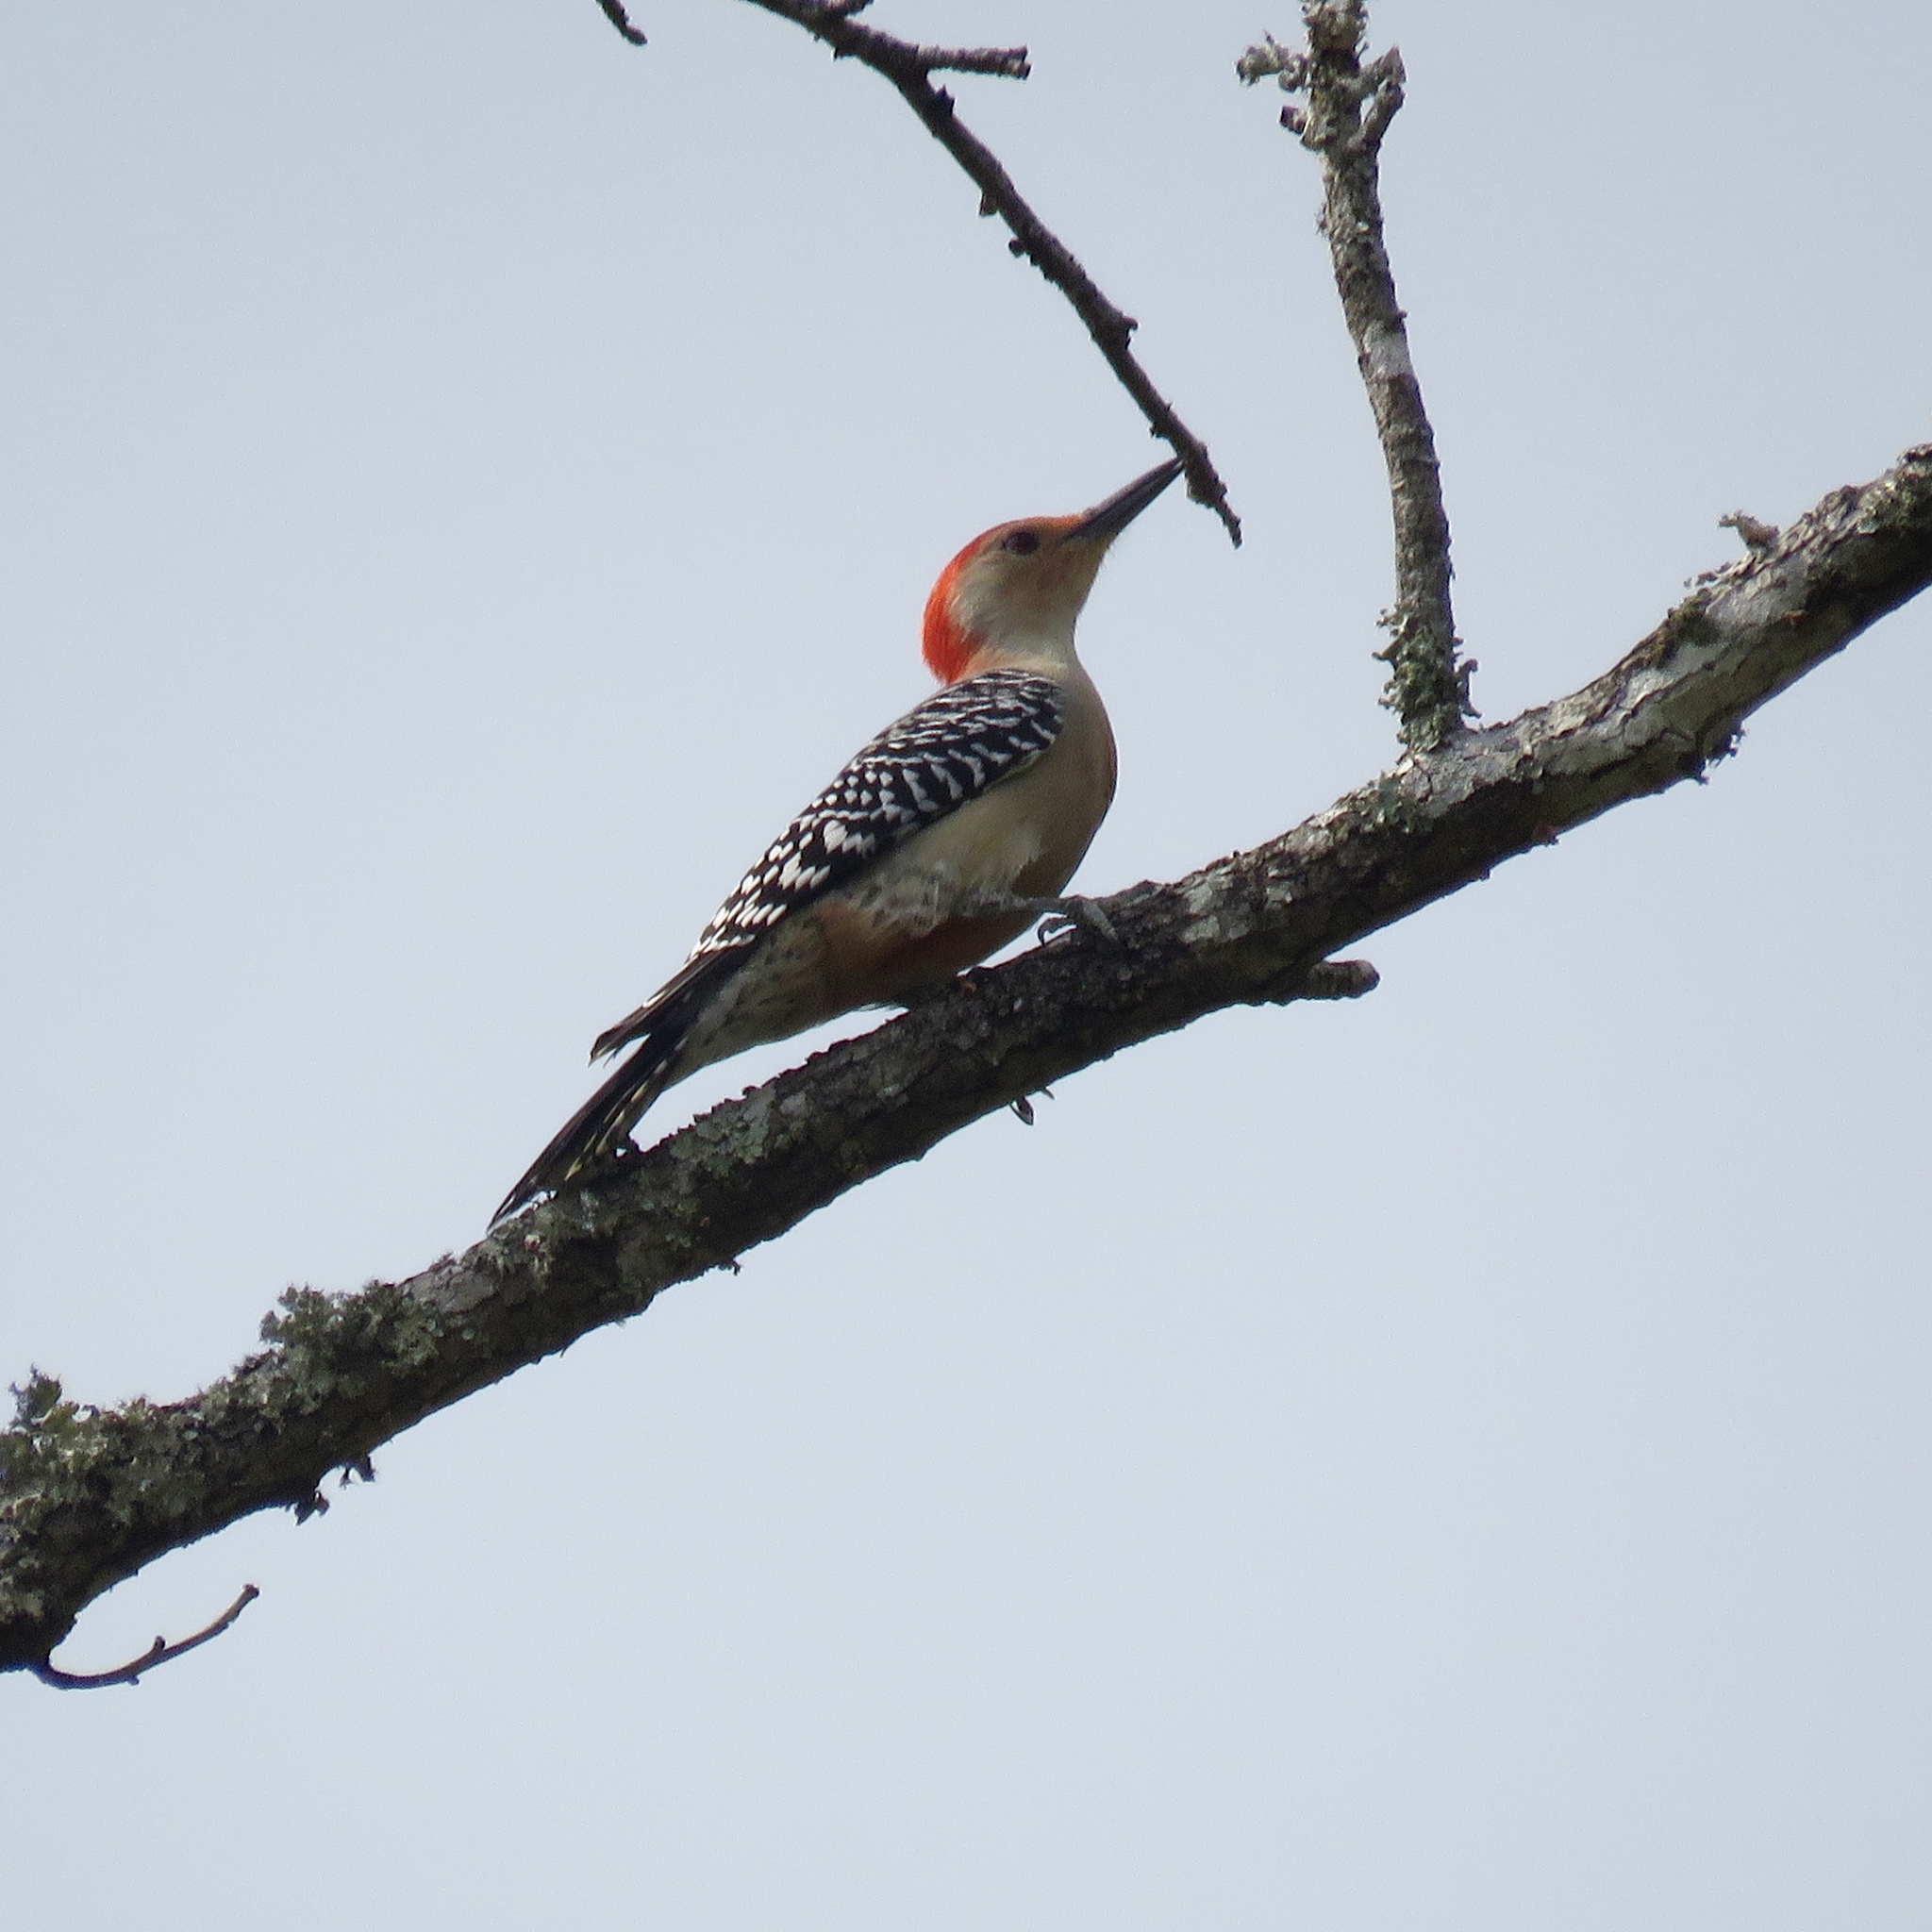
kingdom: Animalia
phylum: Chordata
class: Aves
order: Piciformes
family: Picidae
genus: Melanerpes
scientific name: Melanerpes carolinus
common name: Red-bellied woodpecker
